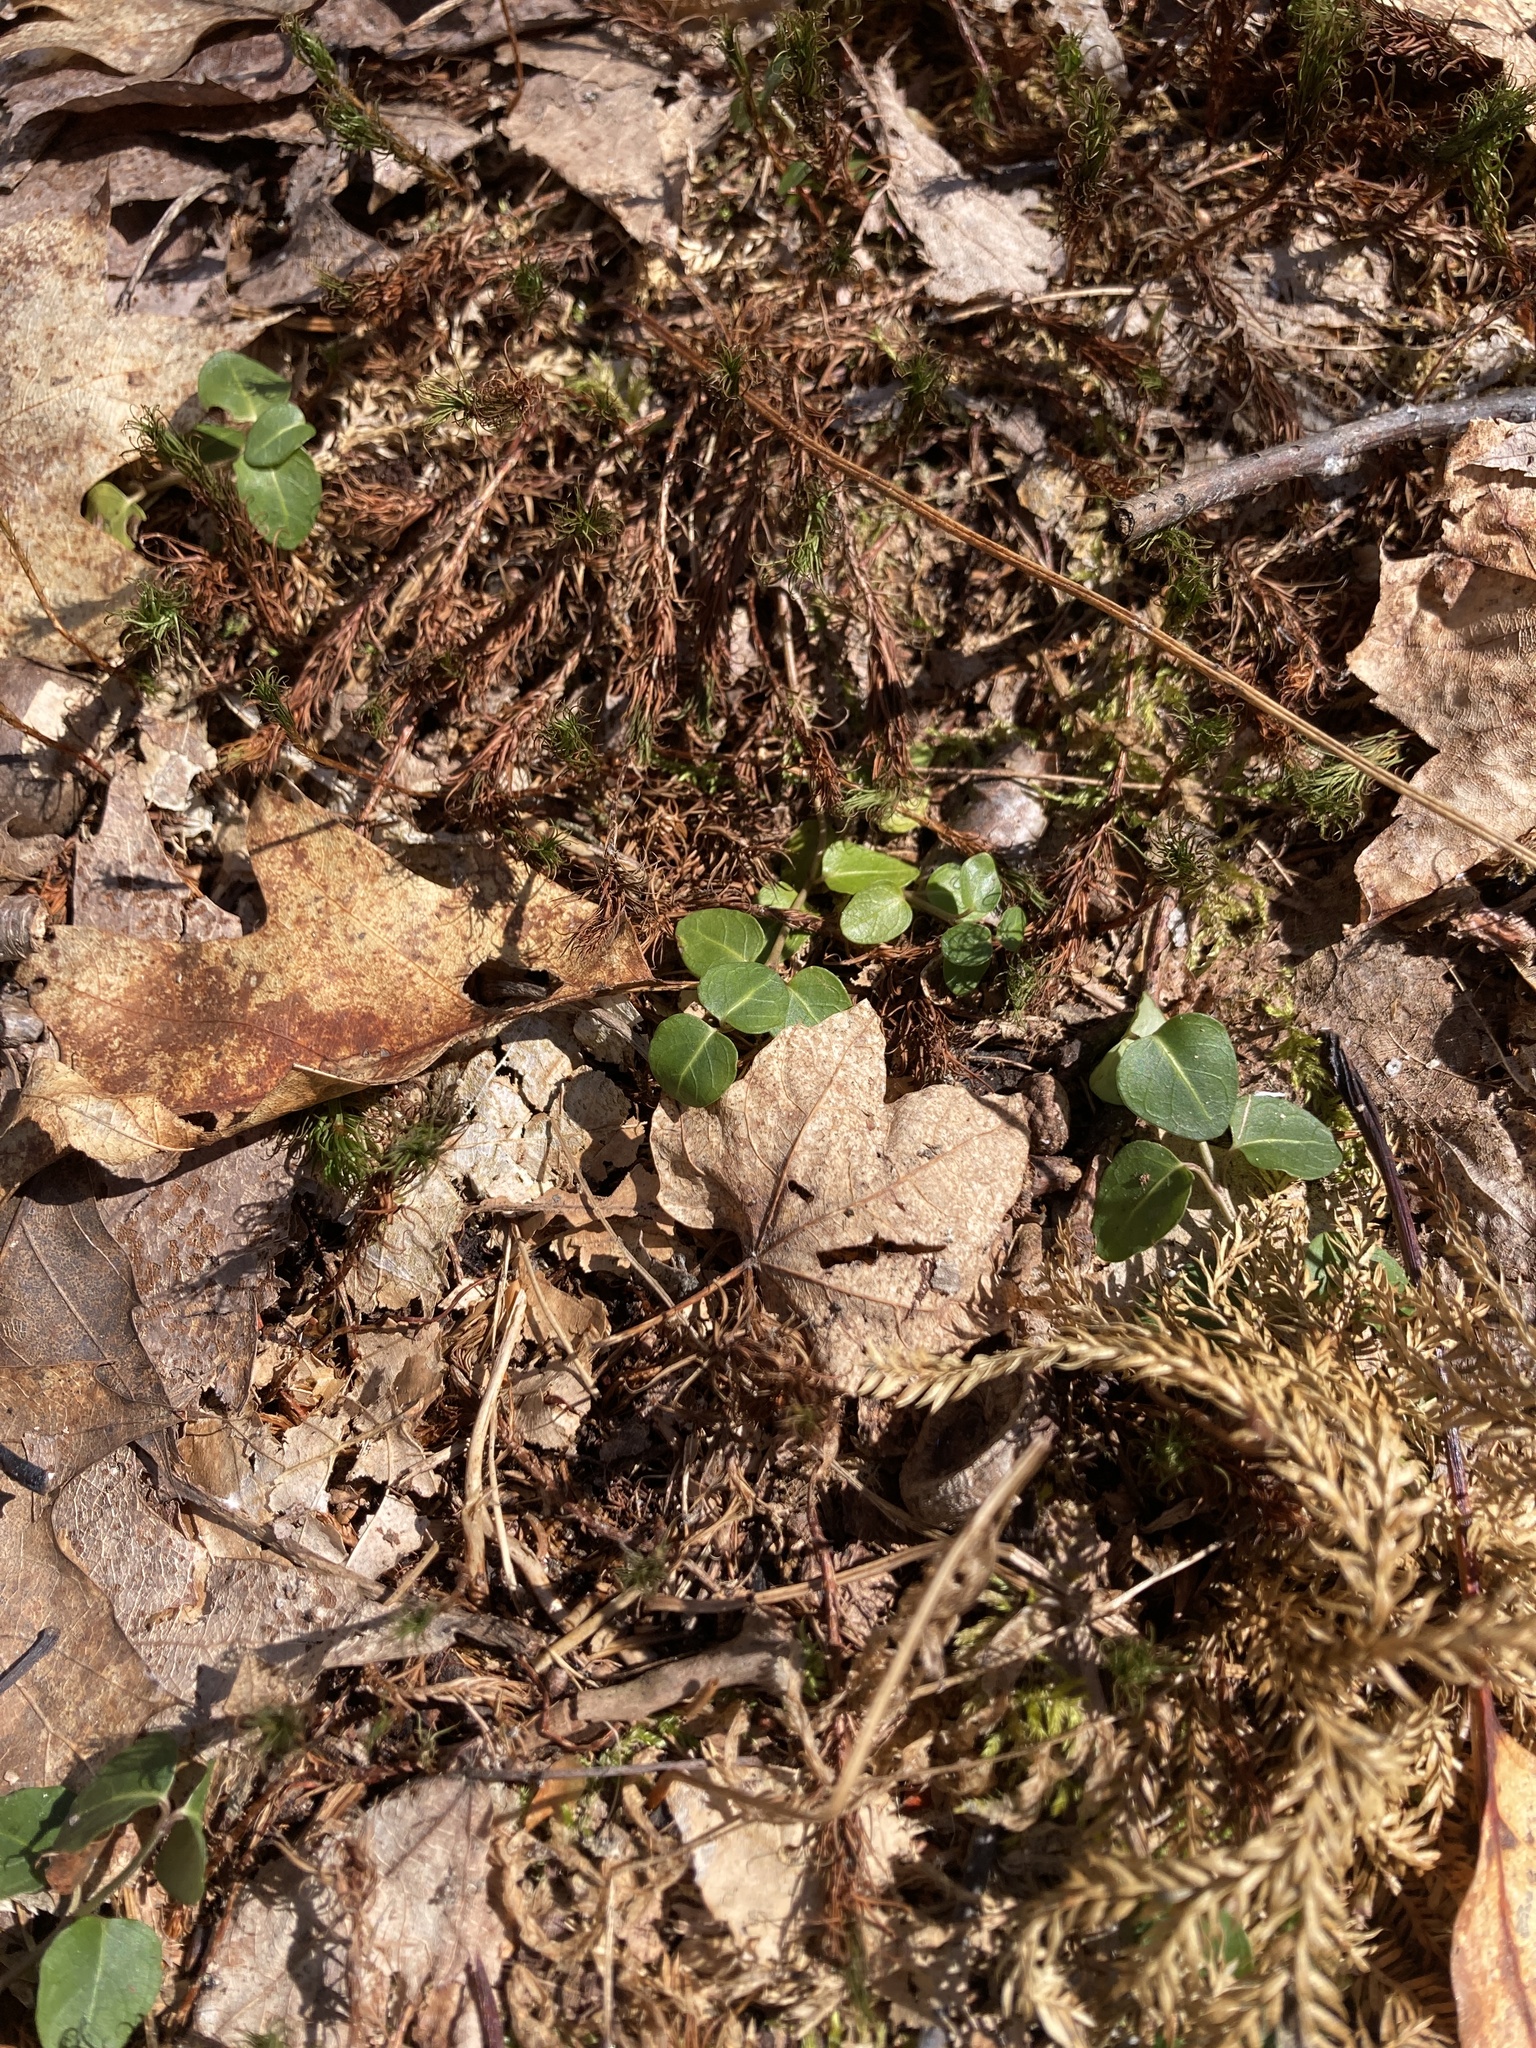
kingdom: Plantae
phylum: Tracheophyta
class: Magnoliopsida
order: Gentianales
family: Rubiaceae
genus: Mitchella
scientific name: Mitchella repens
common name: Partridge-berry
